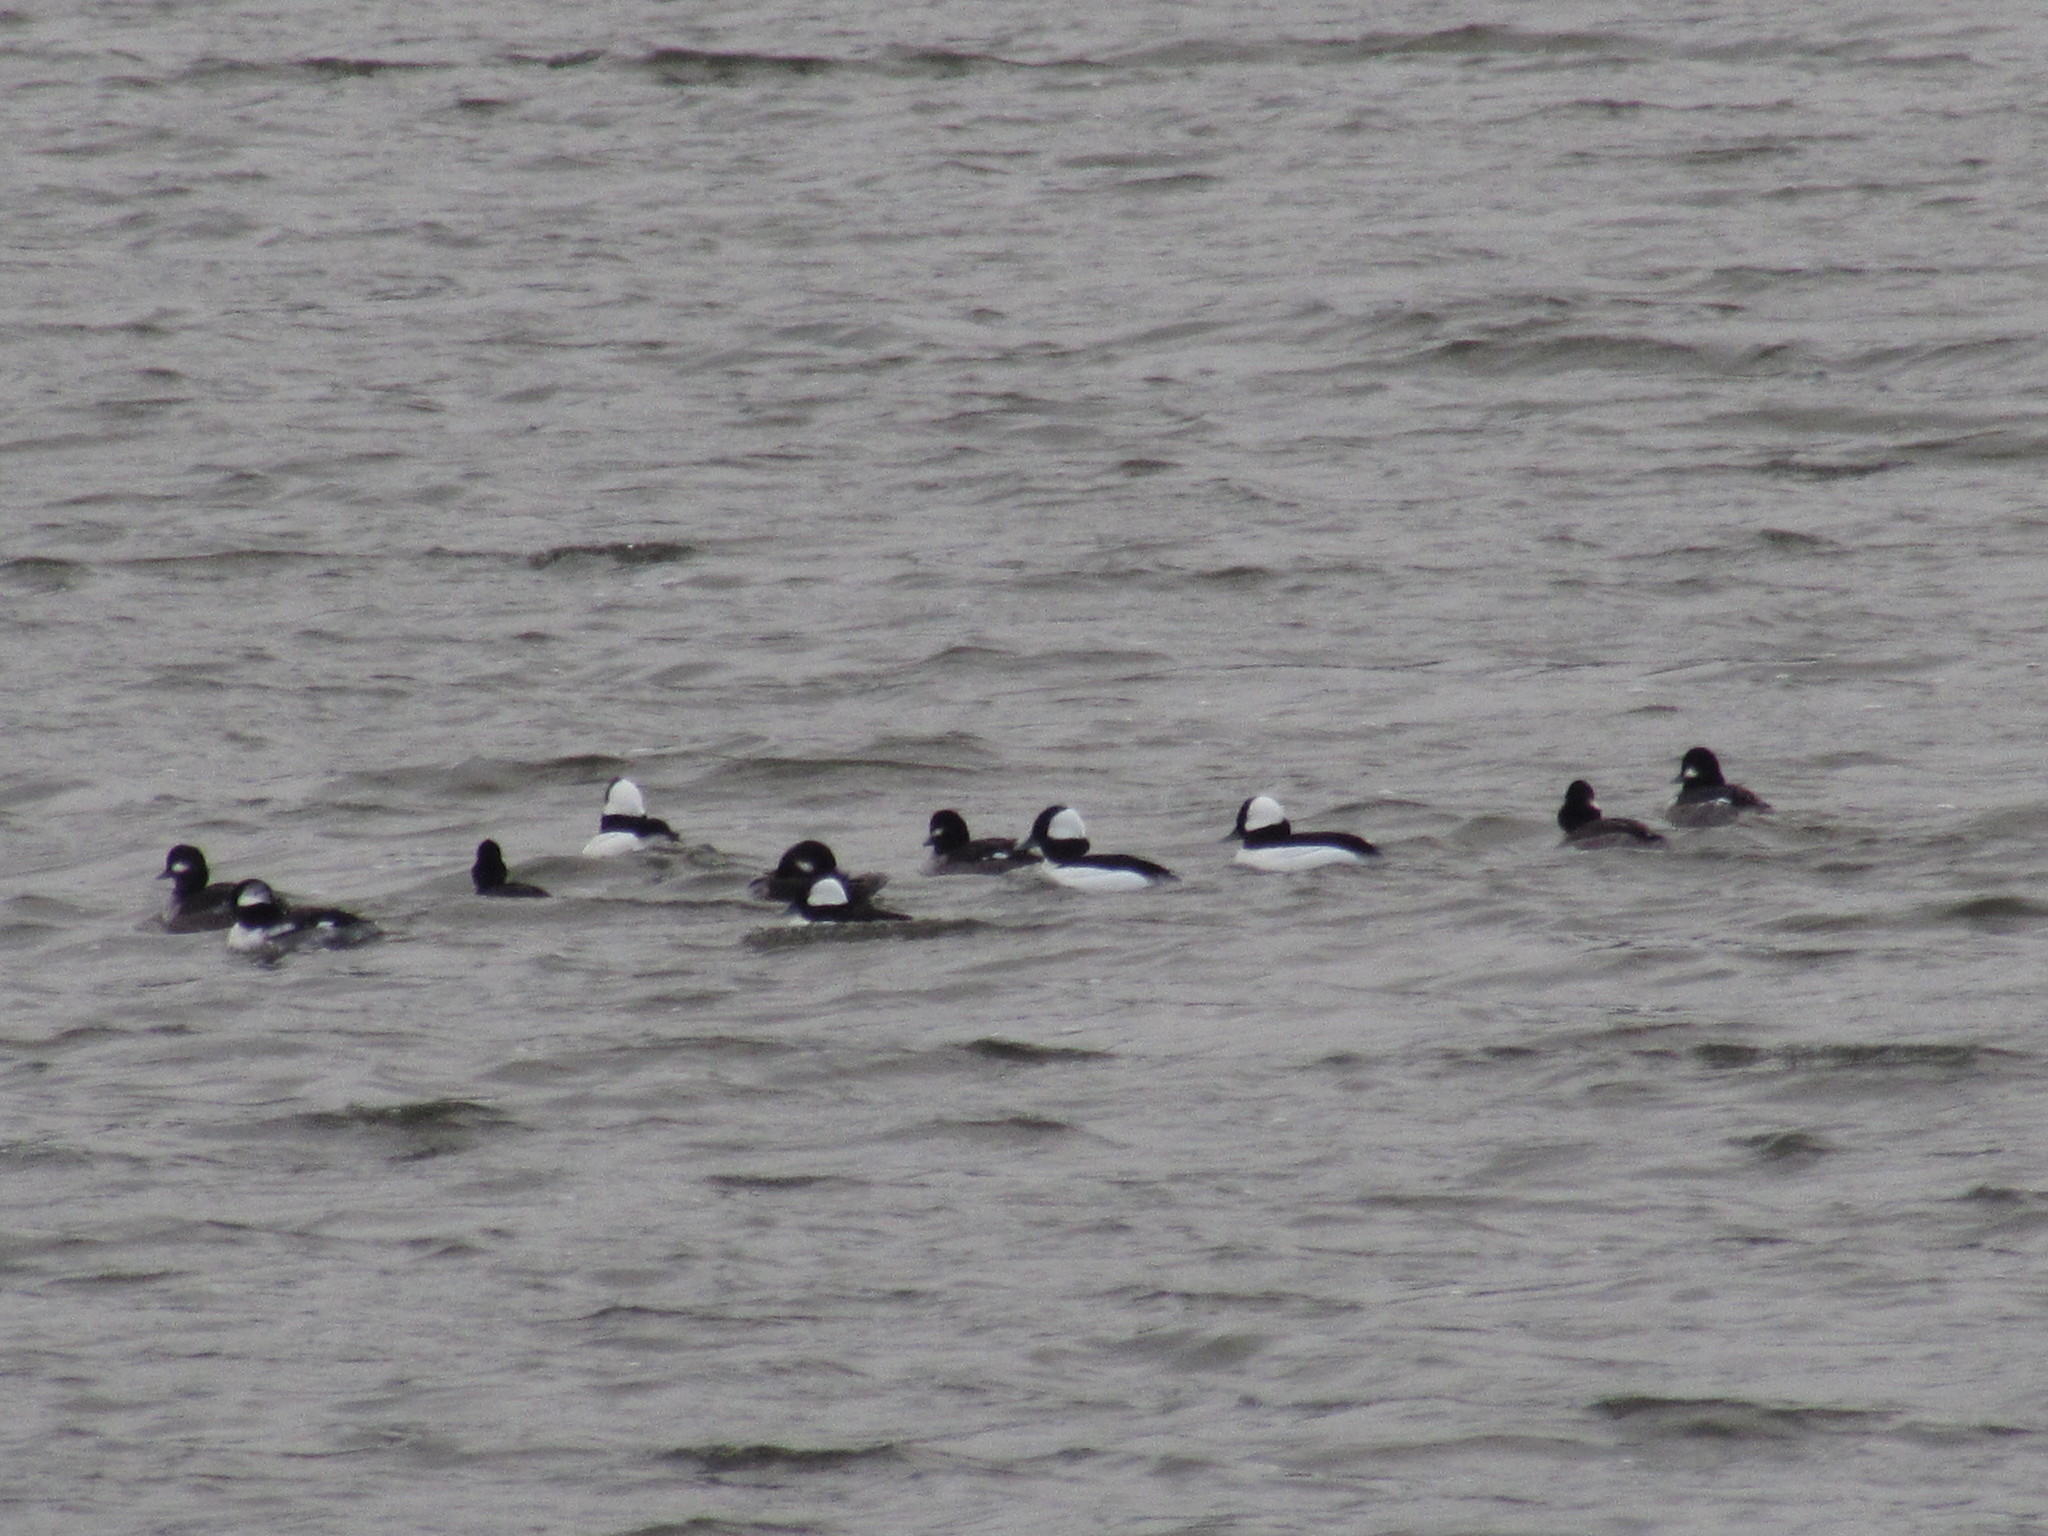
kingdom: Animalia
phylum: Chordata
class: Aves
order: Anseriformes
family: Anatidae
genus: Bucephala
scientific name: Bucephala albeola
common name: Bufflehead
